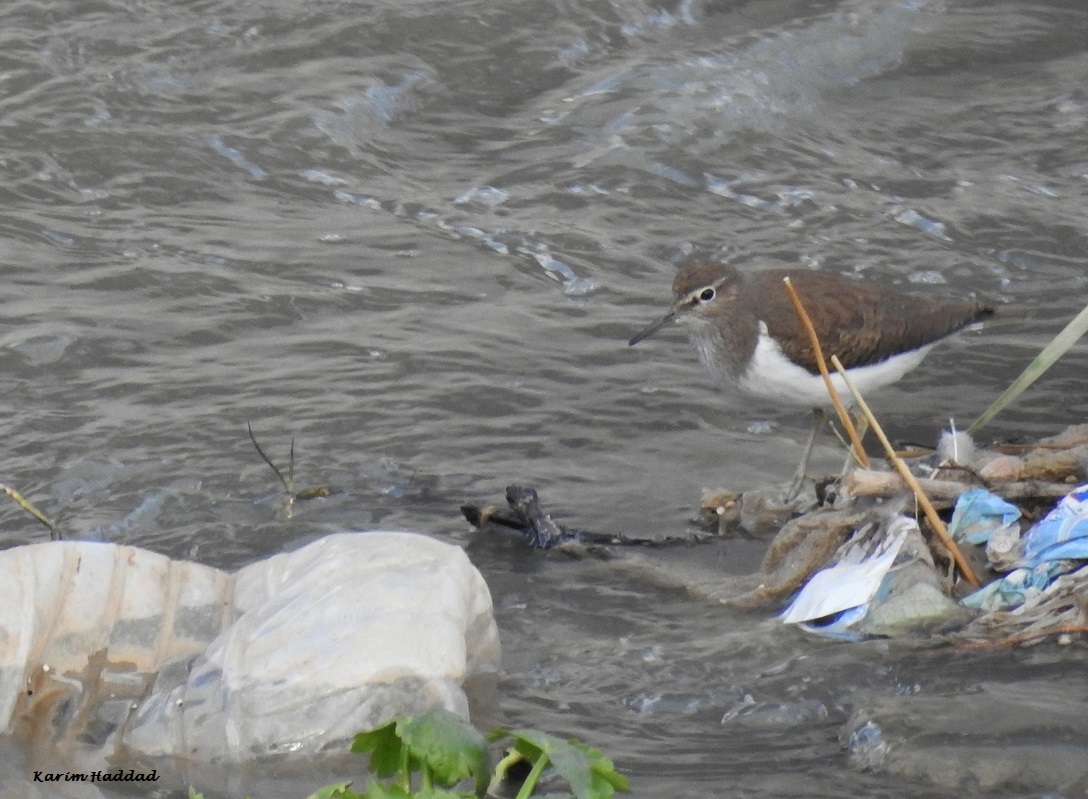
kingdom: Animalia
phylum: Chordata
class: Aves
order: Charadriiformes
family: Scolopacidae
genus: Actitis
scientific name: Actitis hypoleucos
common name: Common sandpiper
